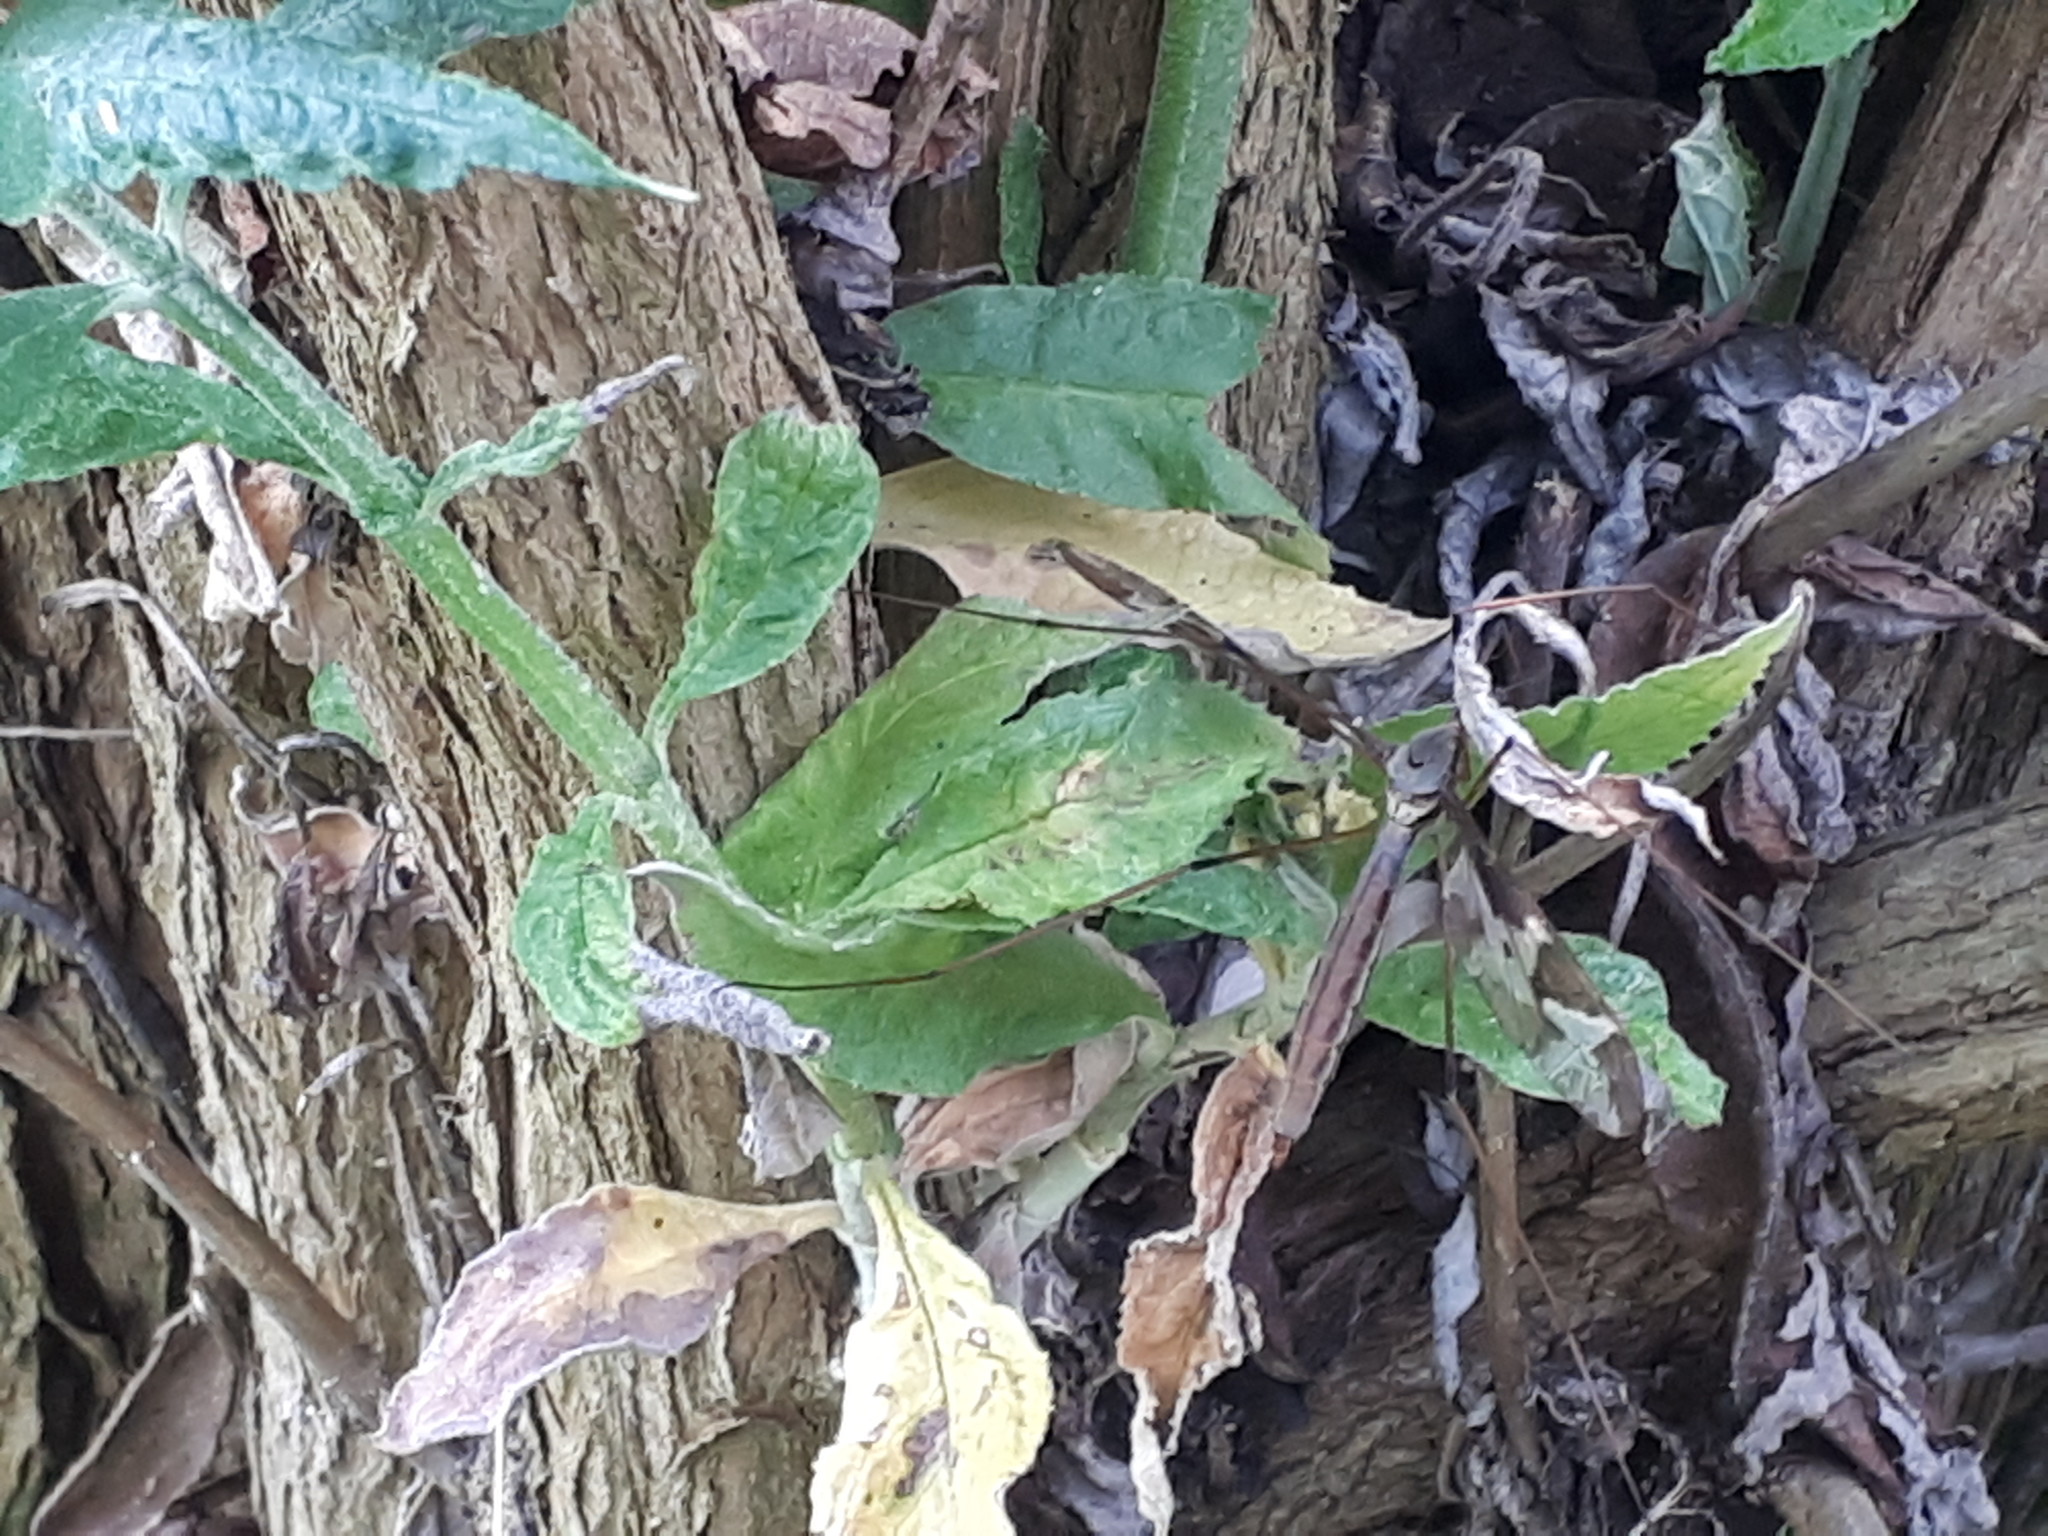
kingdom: Animalia
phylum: Arthropoda
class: Insecta
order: Diptera
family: Tipulidae
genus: Tipula
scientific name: Tipula maxima
